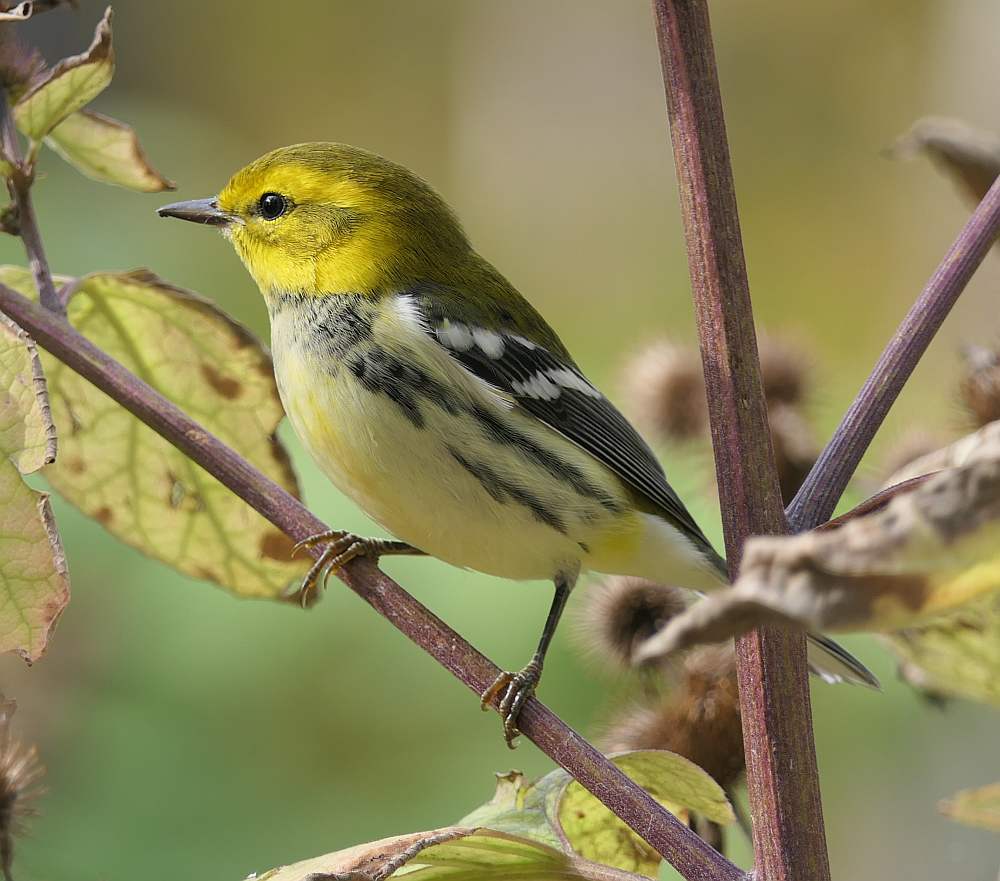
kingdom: Animalia
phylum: Chordata
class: Aves
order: Passeriformes
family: Parulidae
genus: Setophaga
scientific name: Setophaga virens
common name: Black-throated green warbler
